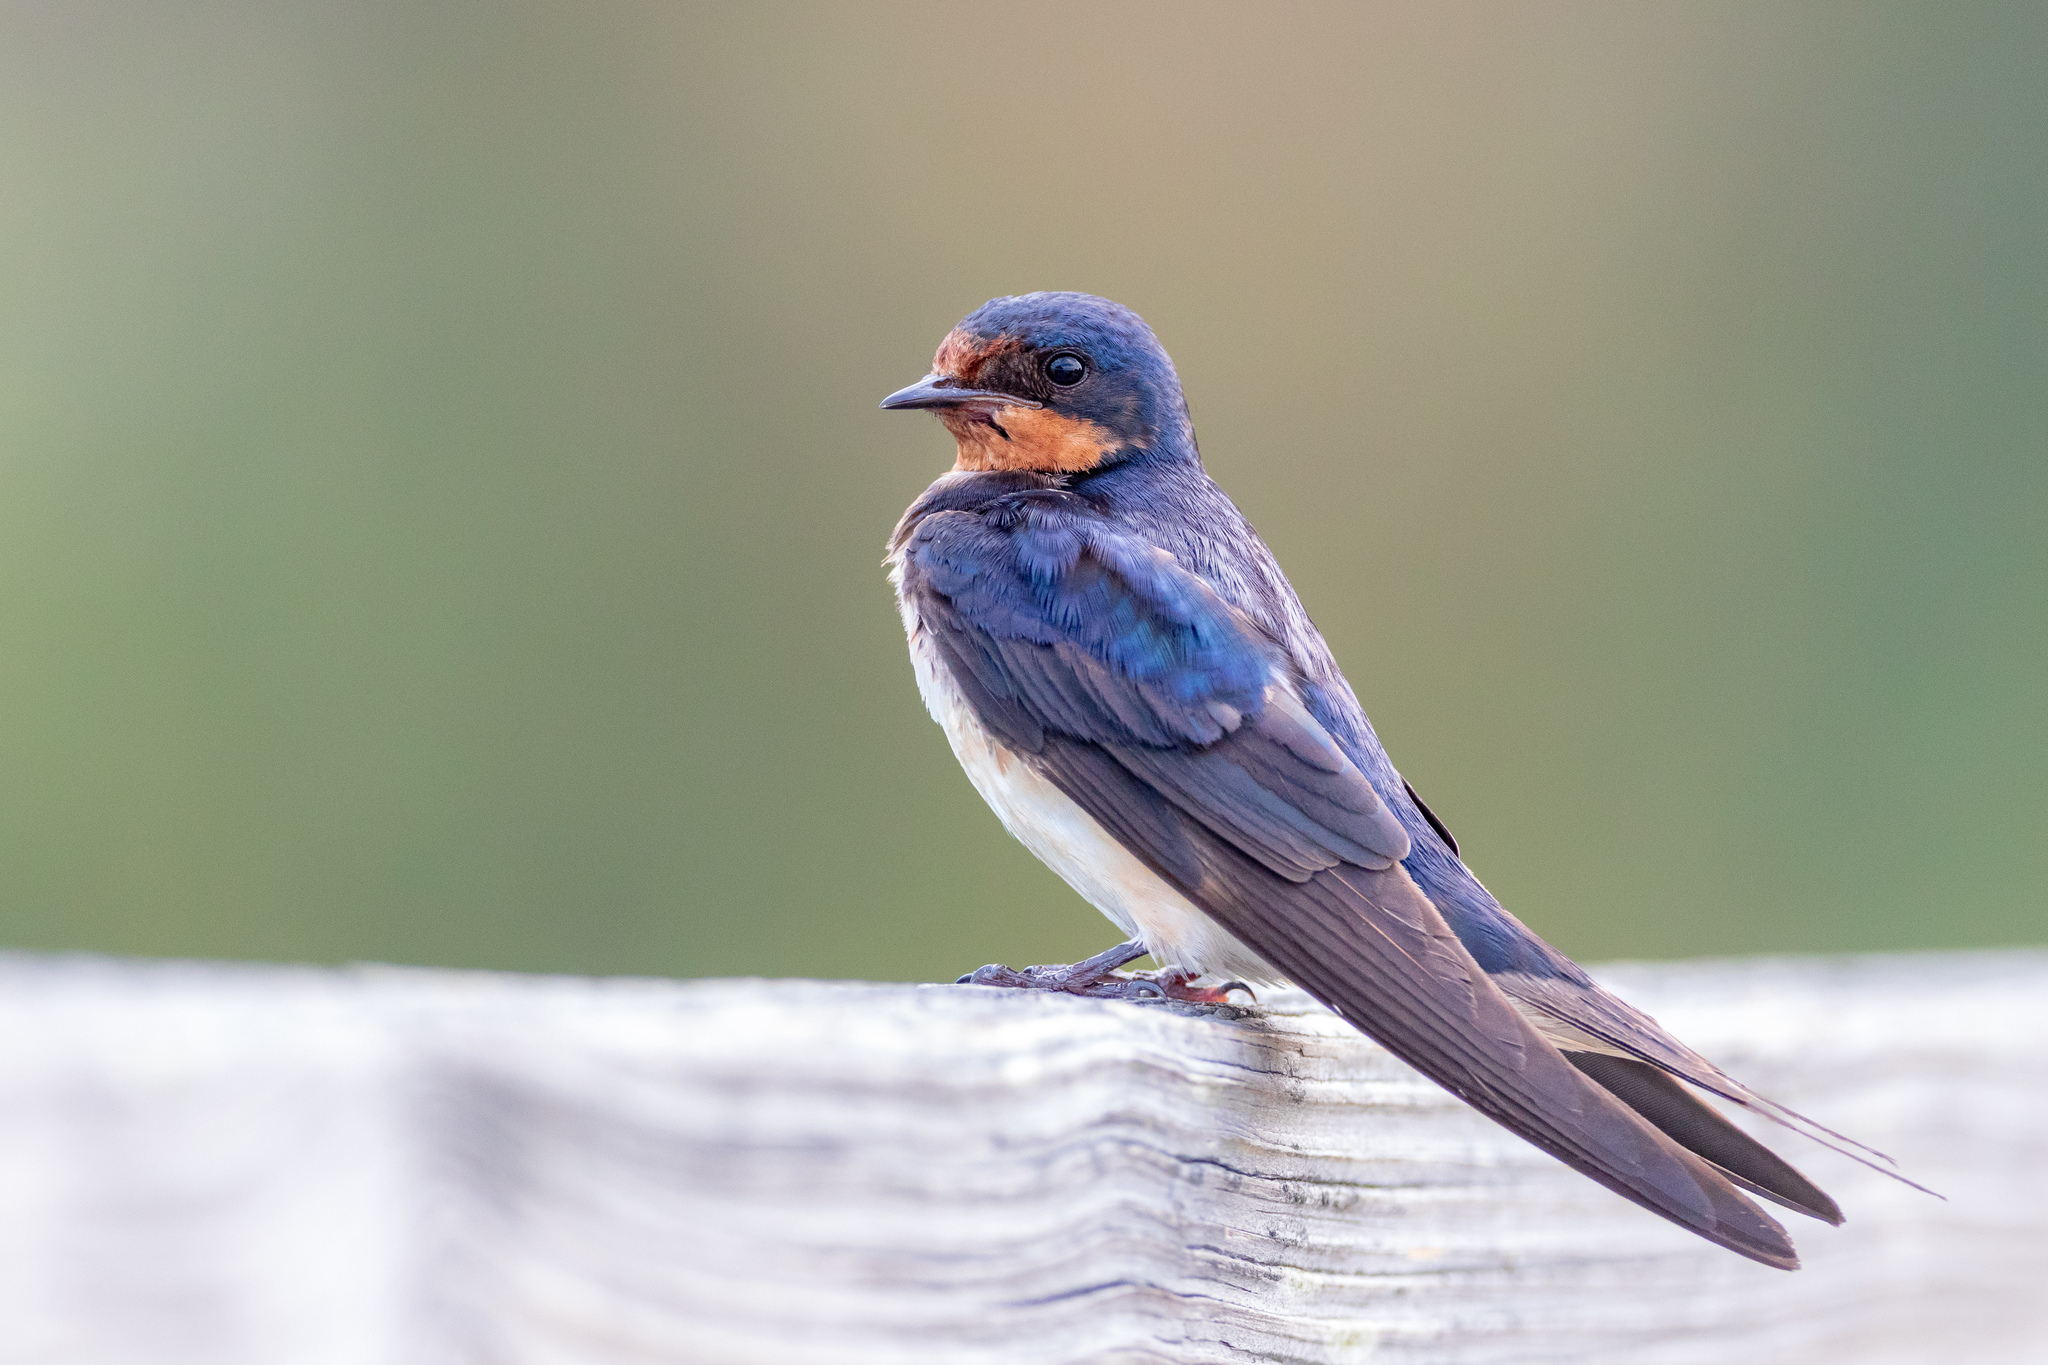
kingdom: Animalia
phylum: Chordata
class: Aves
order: Passeriformes
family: Hirundinidae
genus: Hirundo
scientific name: Hirundo rustica
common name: Barn swallow
